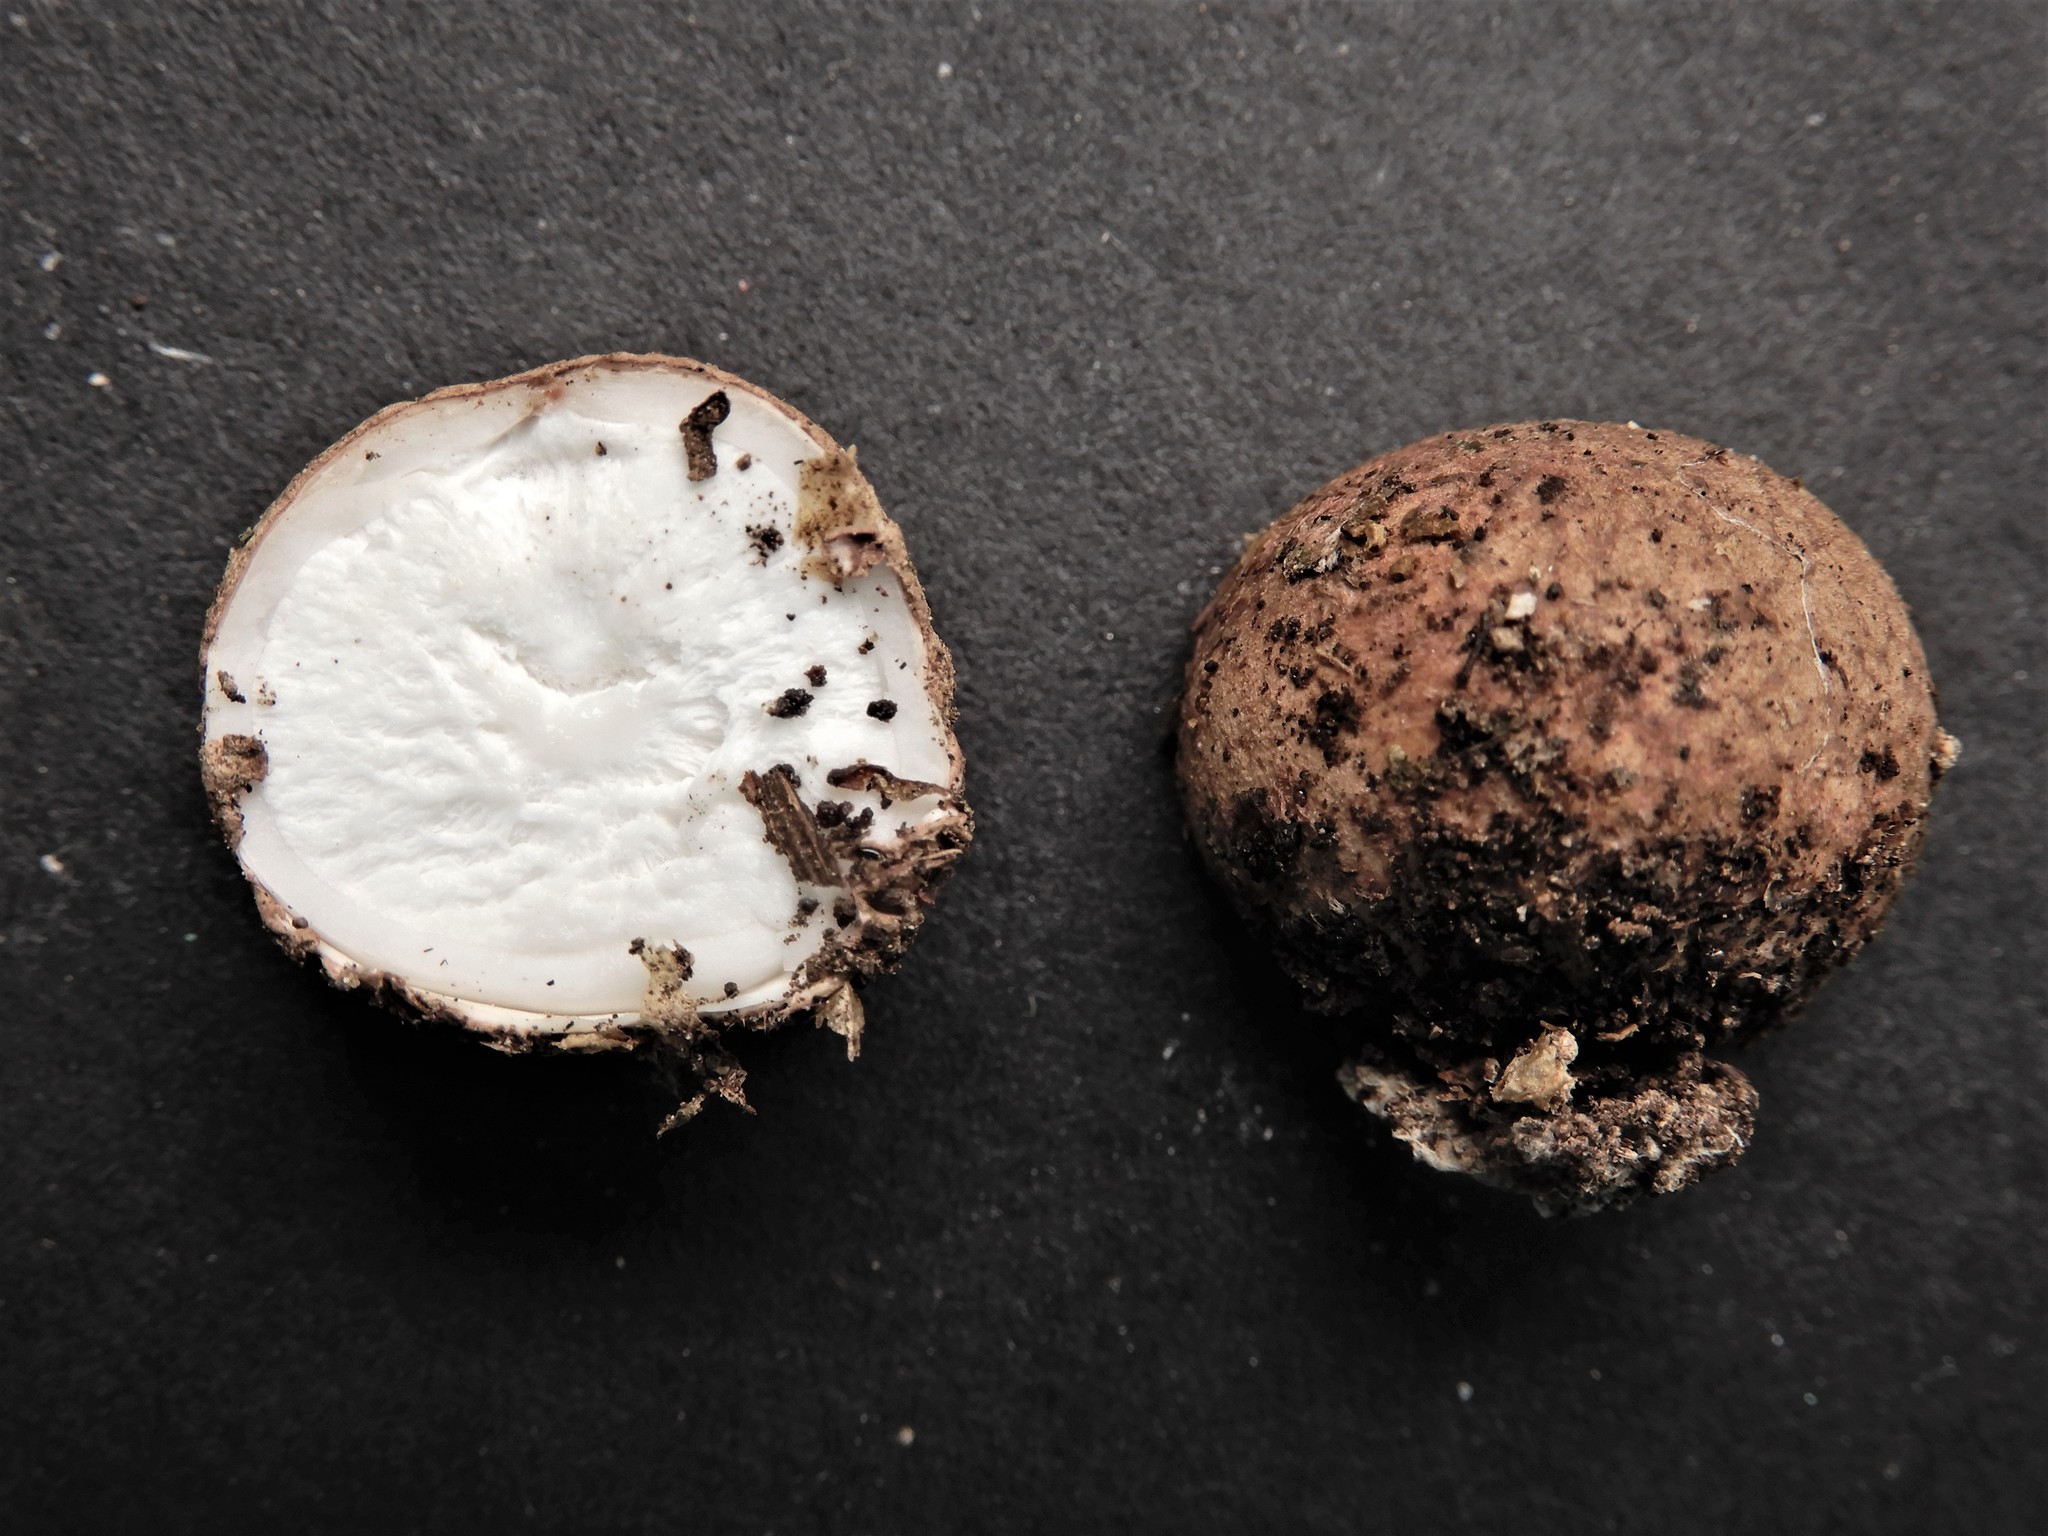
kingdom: Fungi
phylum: Basidiomycota
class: Agaricomycetes
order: Geastrales
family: Geastraceae
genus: Geastrum
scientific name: Geastrum
